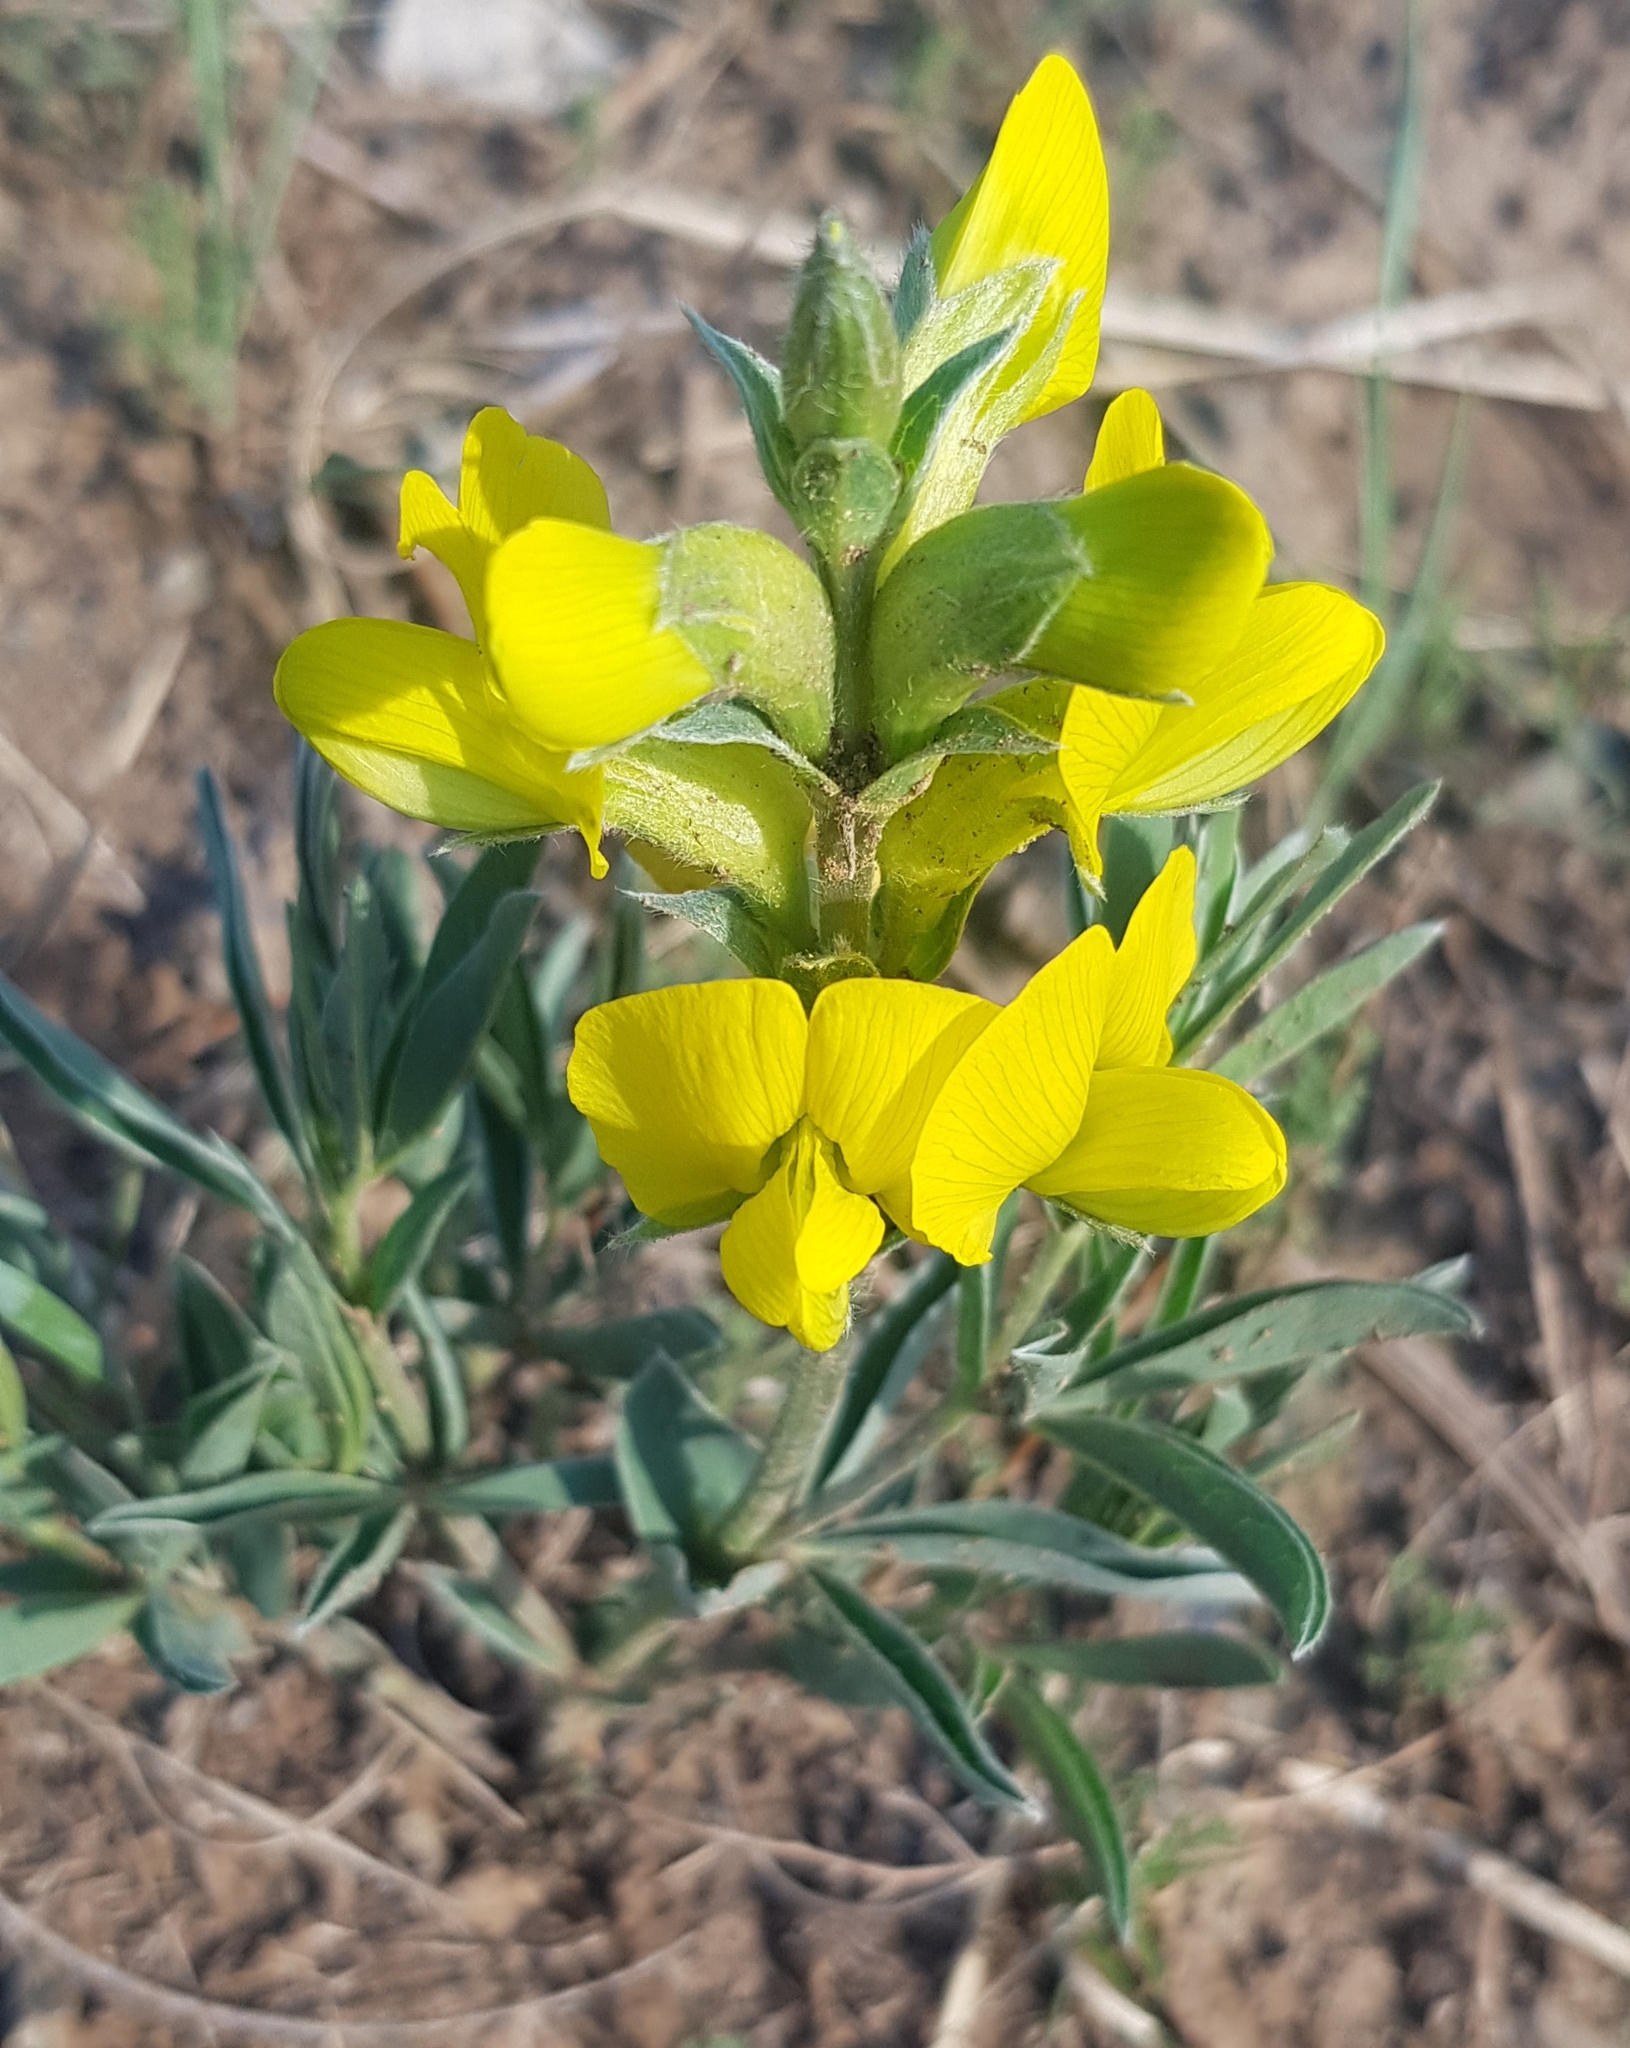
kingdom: Plantae
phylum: Tracheophyta
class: Magnoliopsida
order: Fabales
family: Fabaceae
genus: Thermopsis
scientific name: Thermopsis lanceolata
